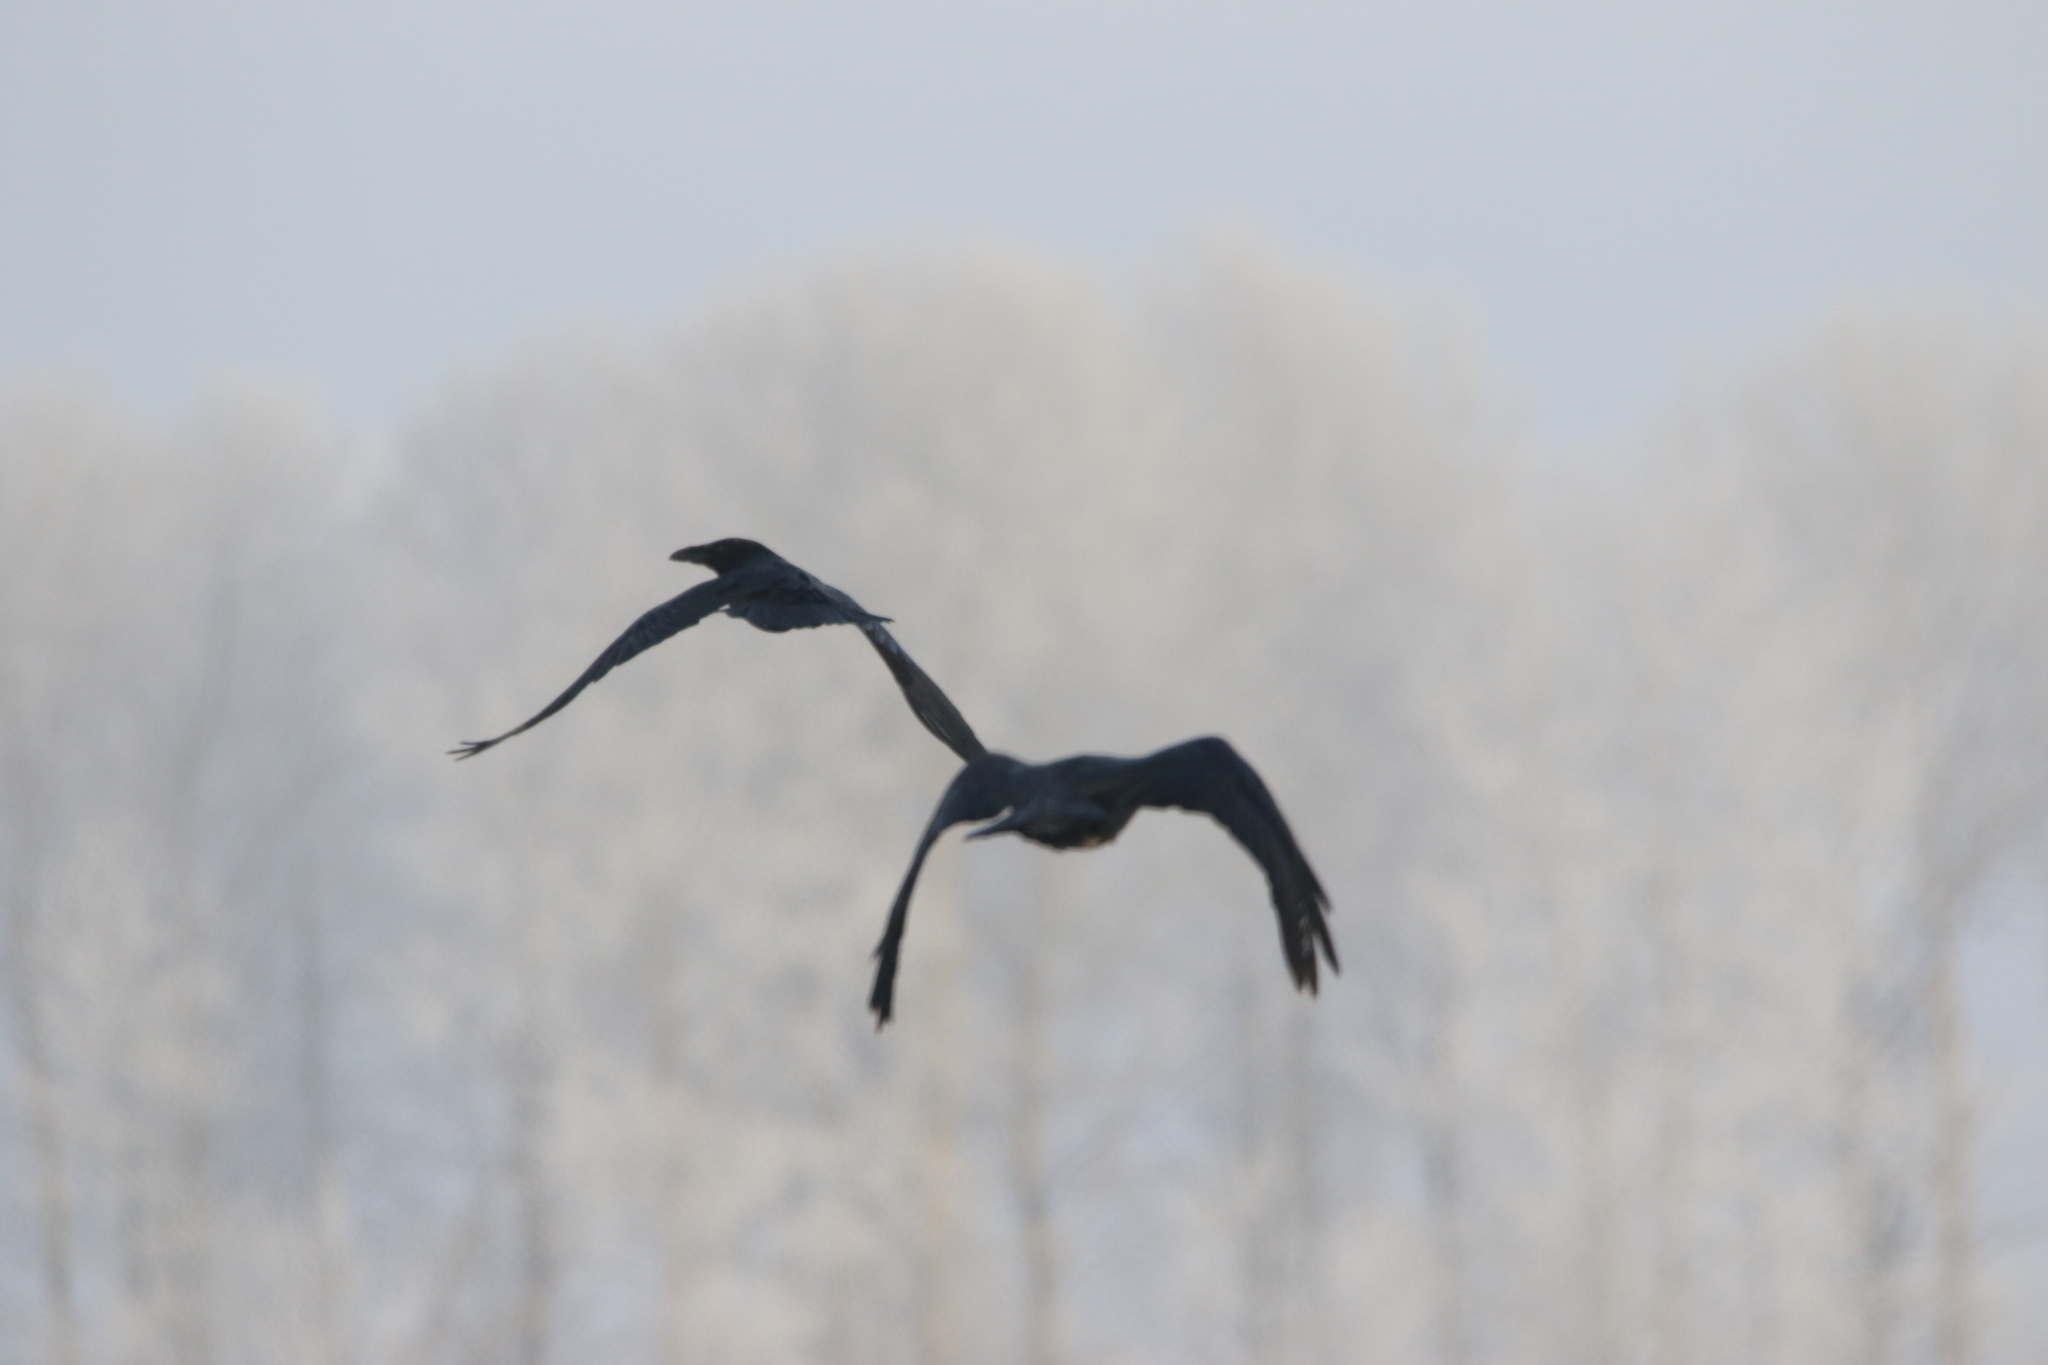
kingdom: Animalia
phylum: Chordata
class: Aves
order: Passeriformes
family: Corvidae
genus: Corvus
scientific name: Corvus corax
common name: Common raven
